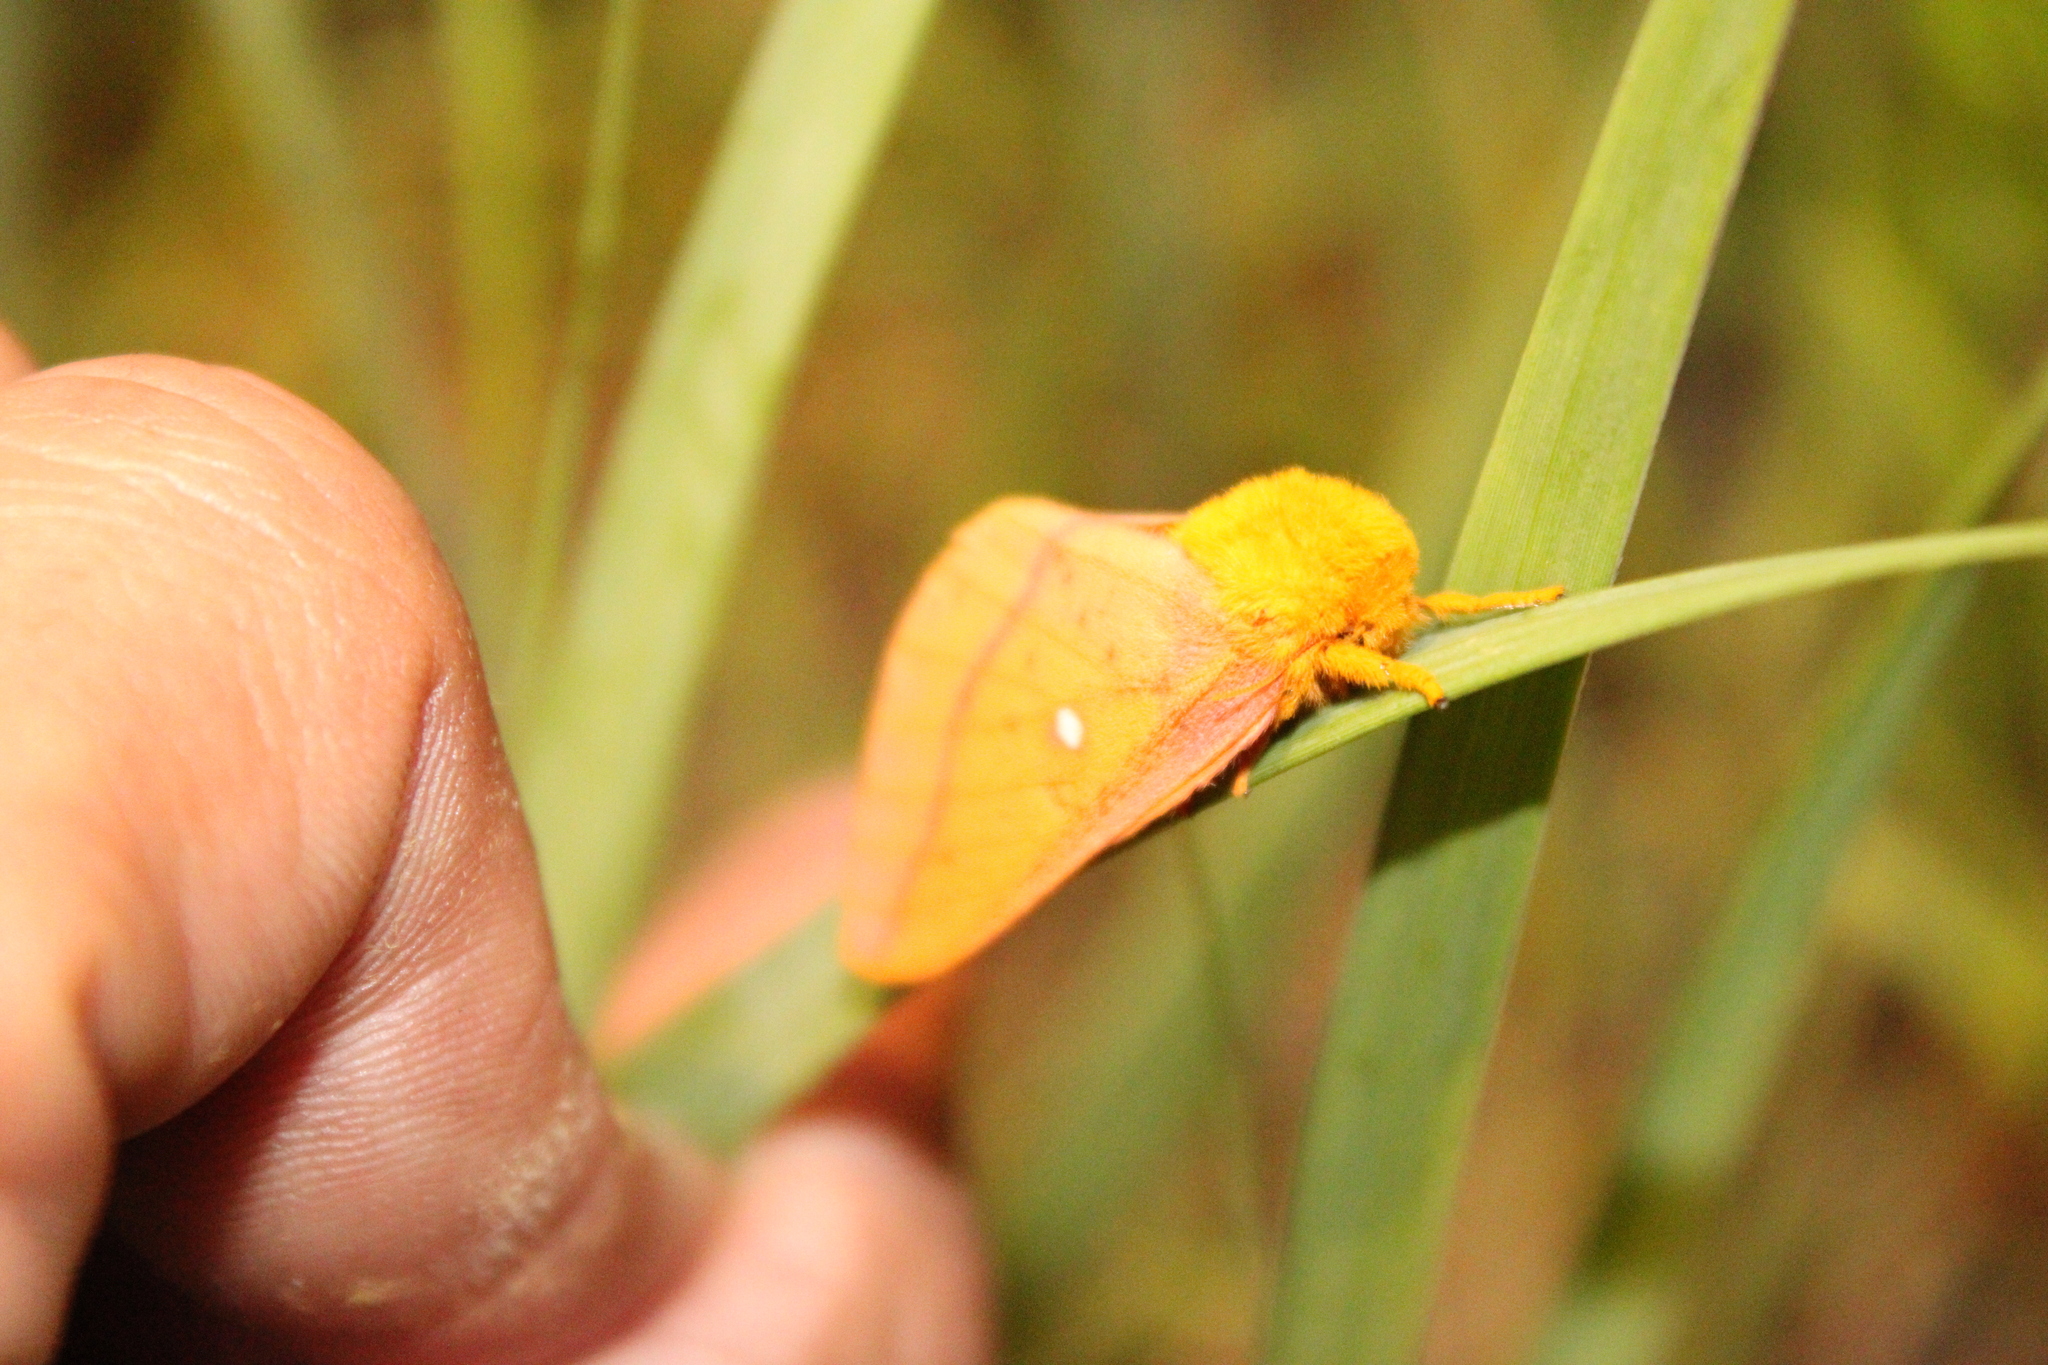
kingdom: Animalia
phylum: Arthropoda
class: Insecta
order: Lepidoptera
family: Saturniidae
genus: Anisota
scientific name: Anisota senatoria
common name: Orange-striped oakworm moth
